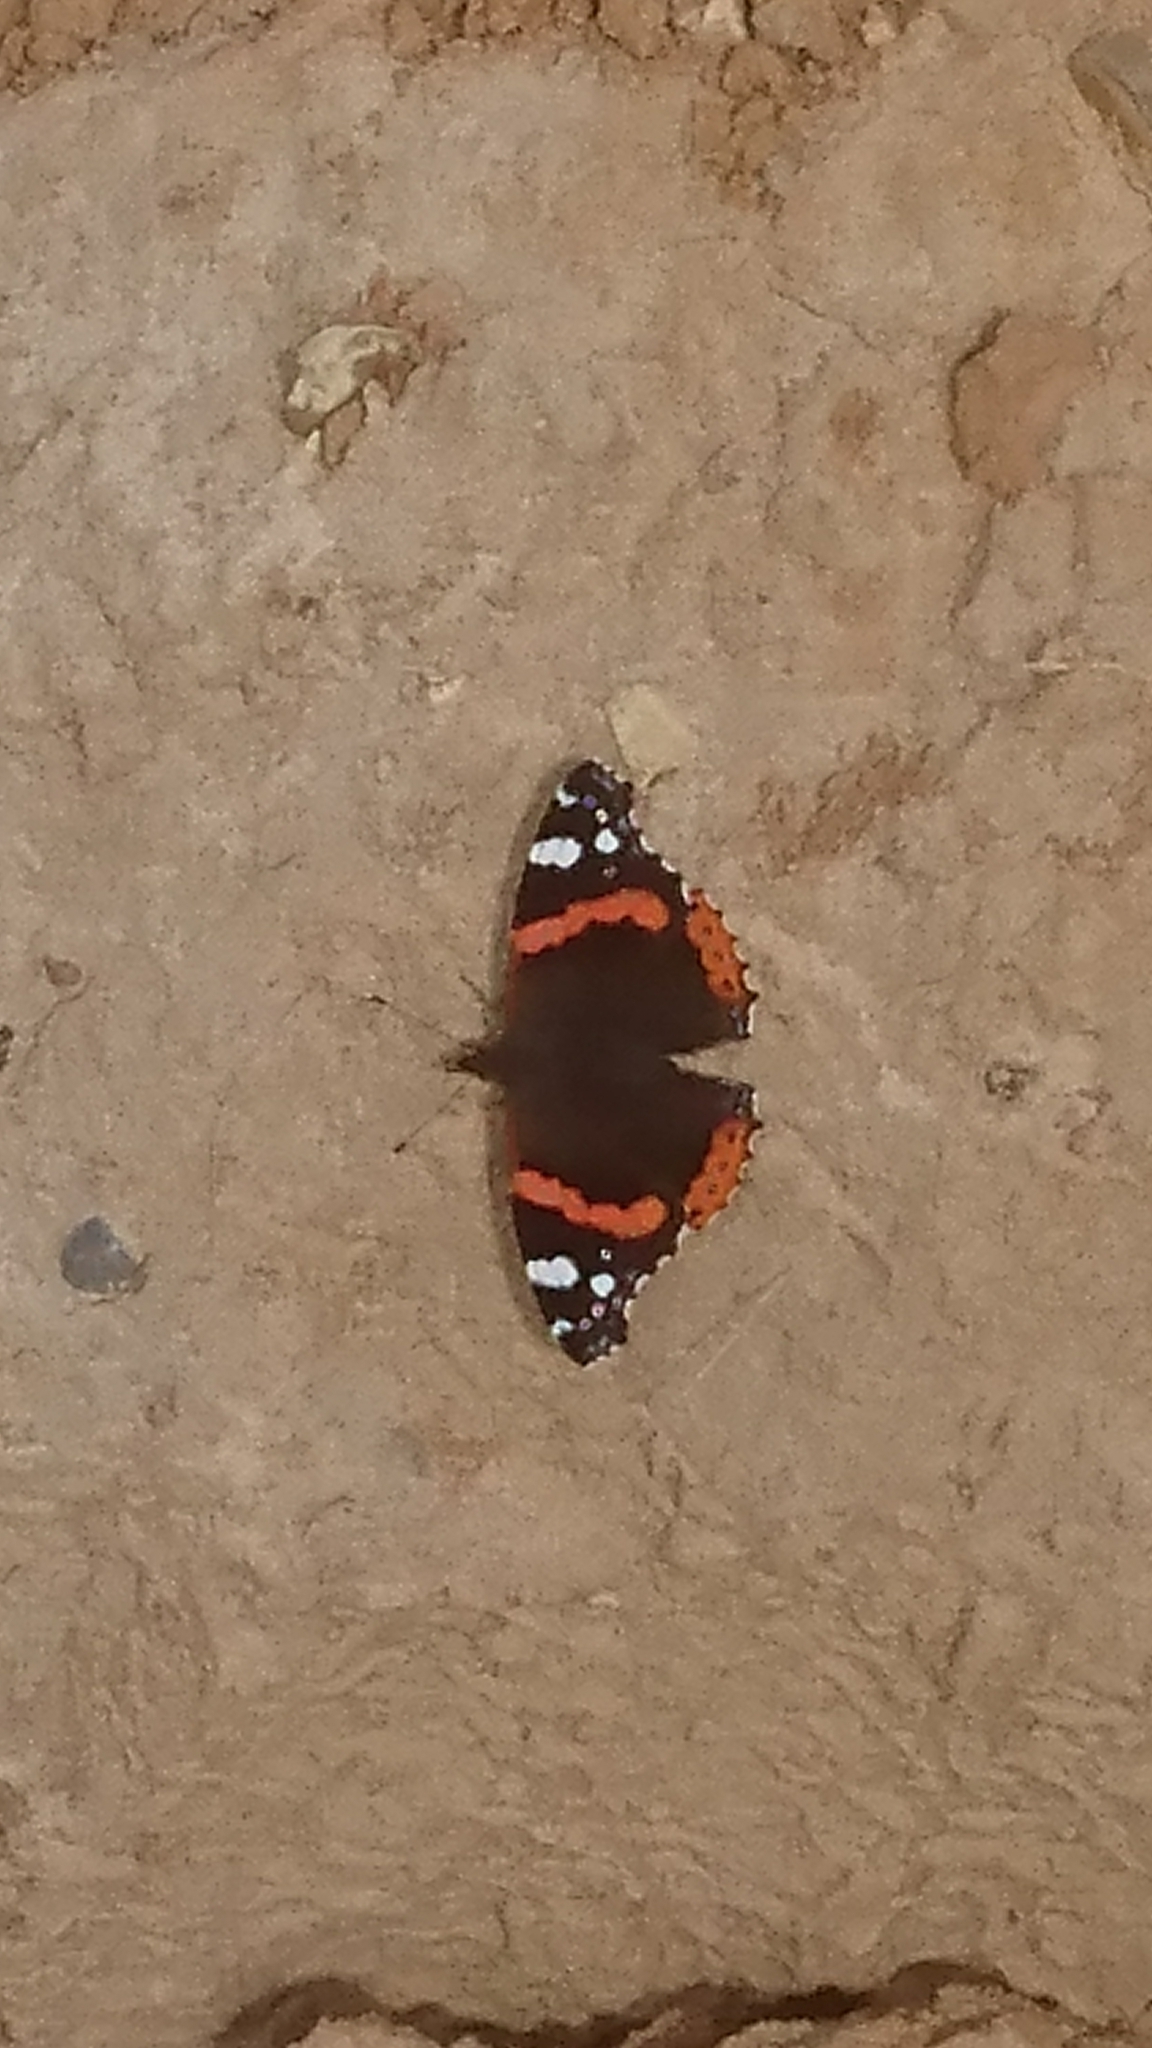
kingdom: Animalia
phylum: Arthropoda
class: Insecta
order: Lepidoptera
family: Nymphalidae
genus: Vanessa
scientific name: Vanessa atalanta
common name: Red admiral
